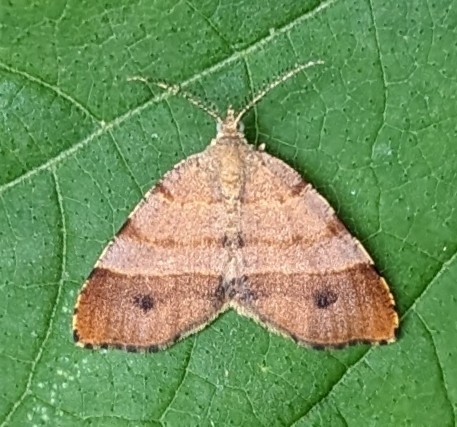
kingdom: Animalia
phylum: Arthropoda
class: Insecta
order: Lepidoptera
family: Geometridae
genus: Mellilla
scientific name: Mellilla xanthometata
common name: Orange wing moth
